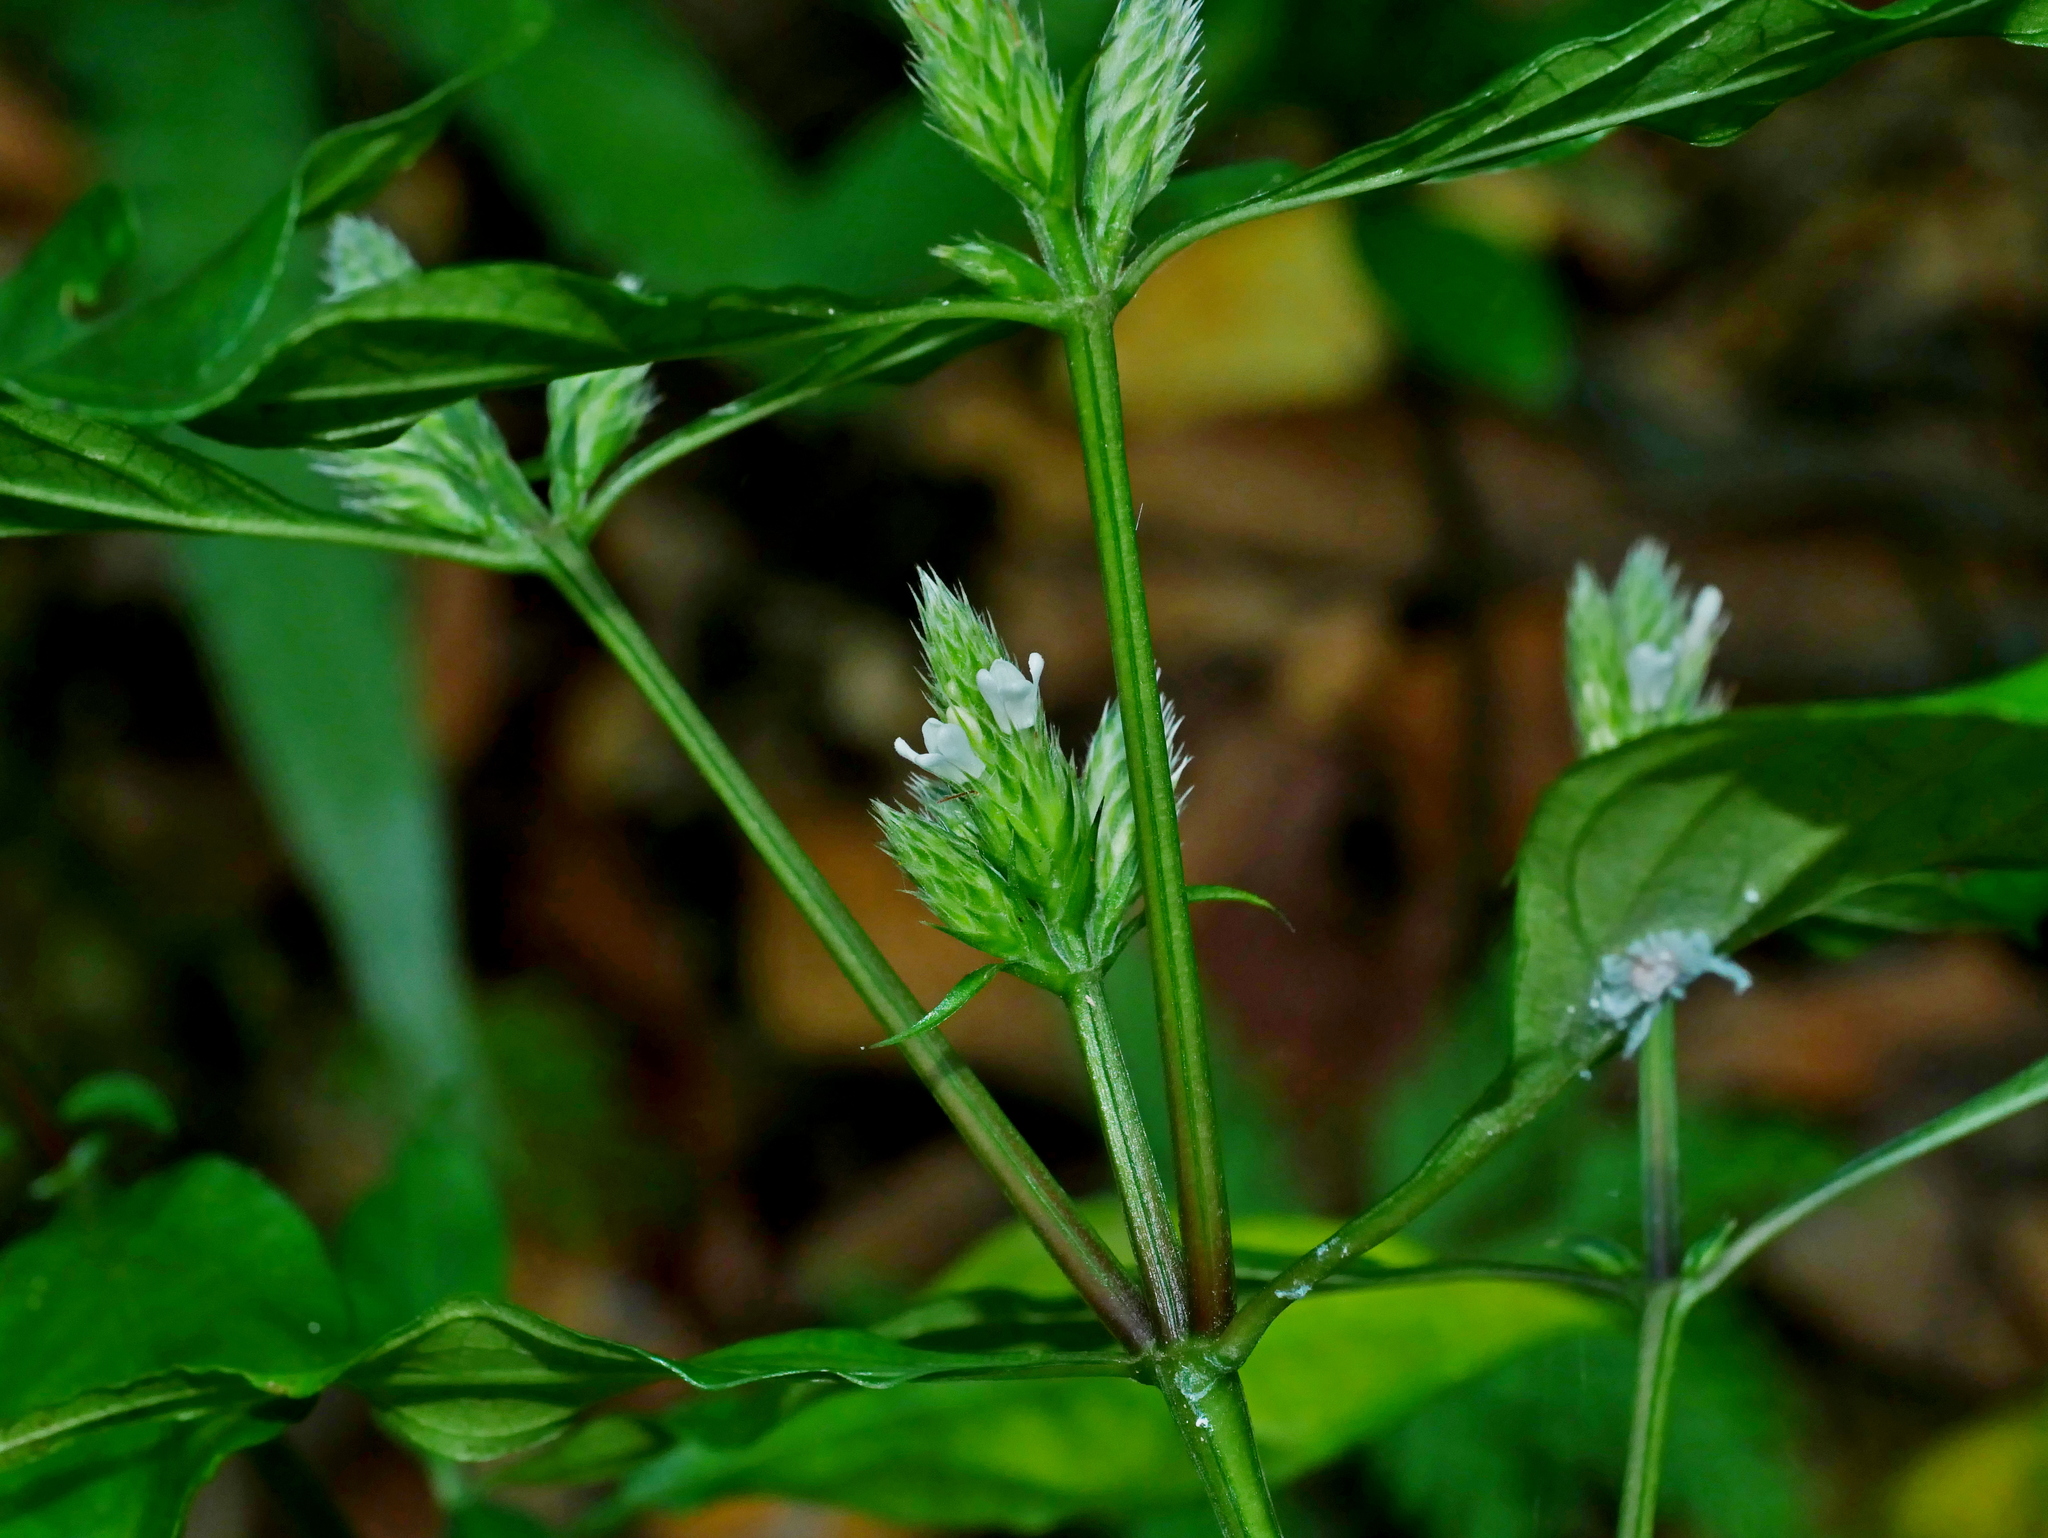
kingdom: Plantae
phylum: Tracheophyta
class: Magnoliopsida
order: Lamiales
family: Acanthaceae
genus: Lepidagathis
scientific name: Lepidagathis formosensis
